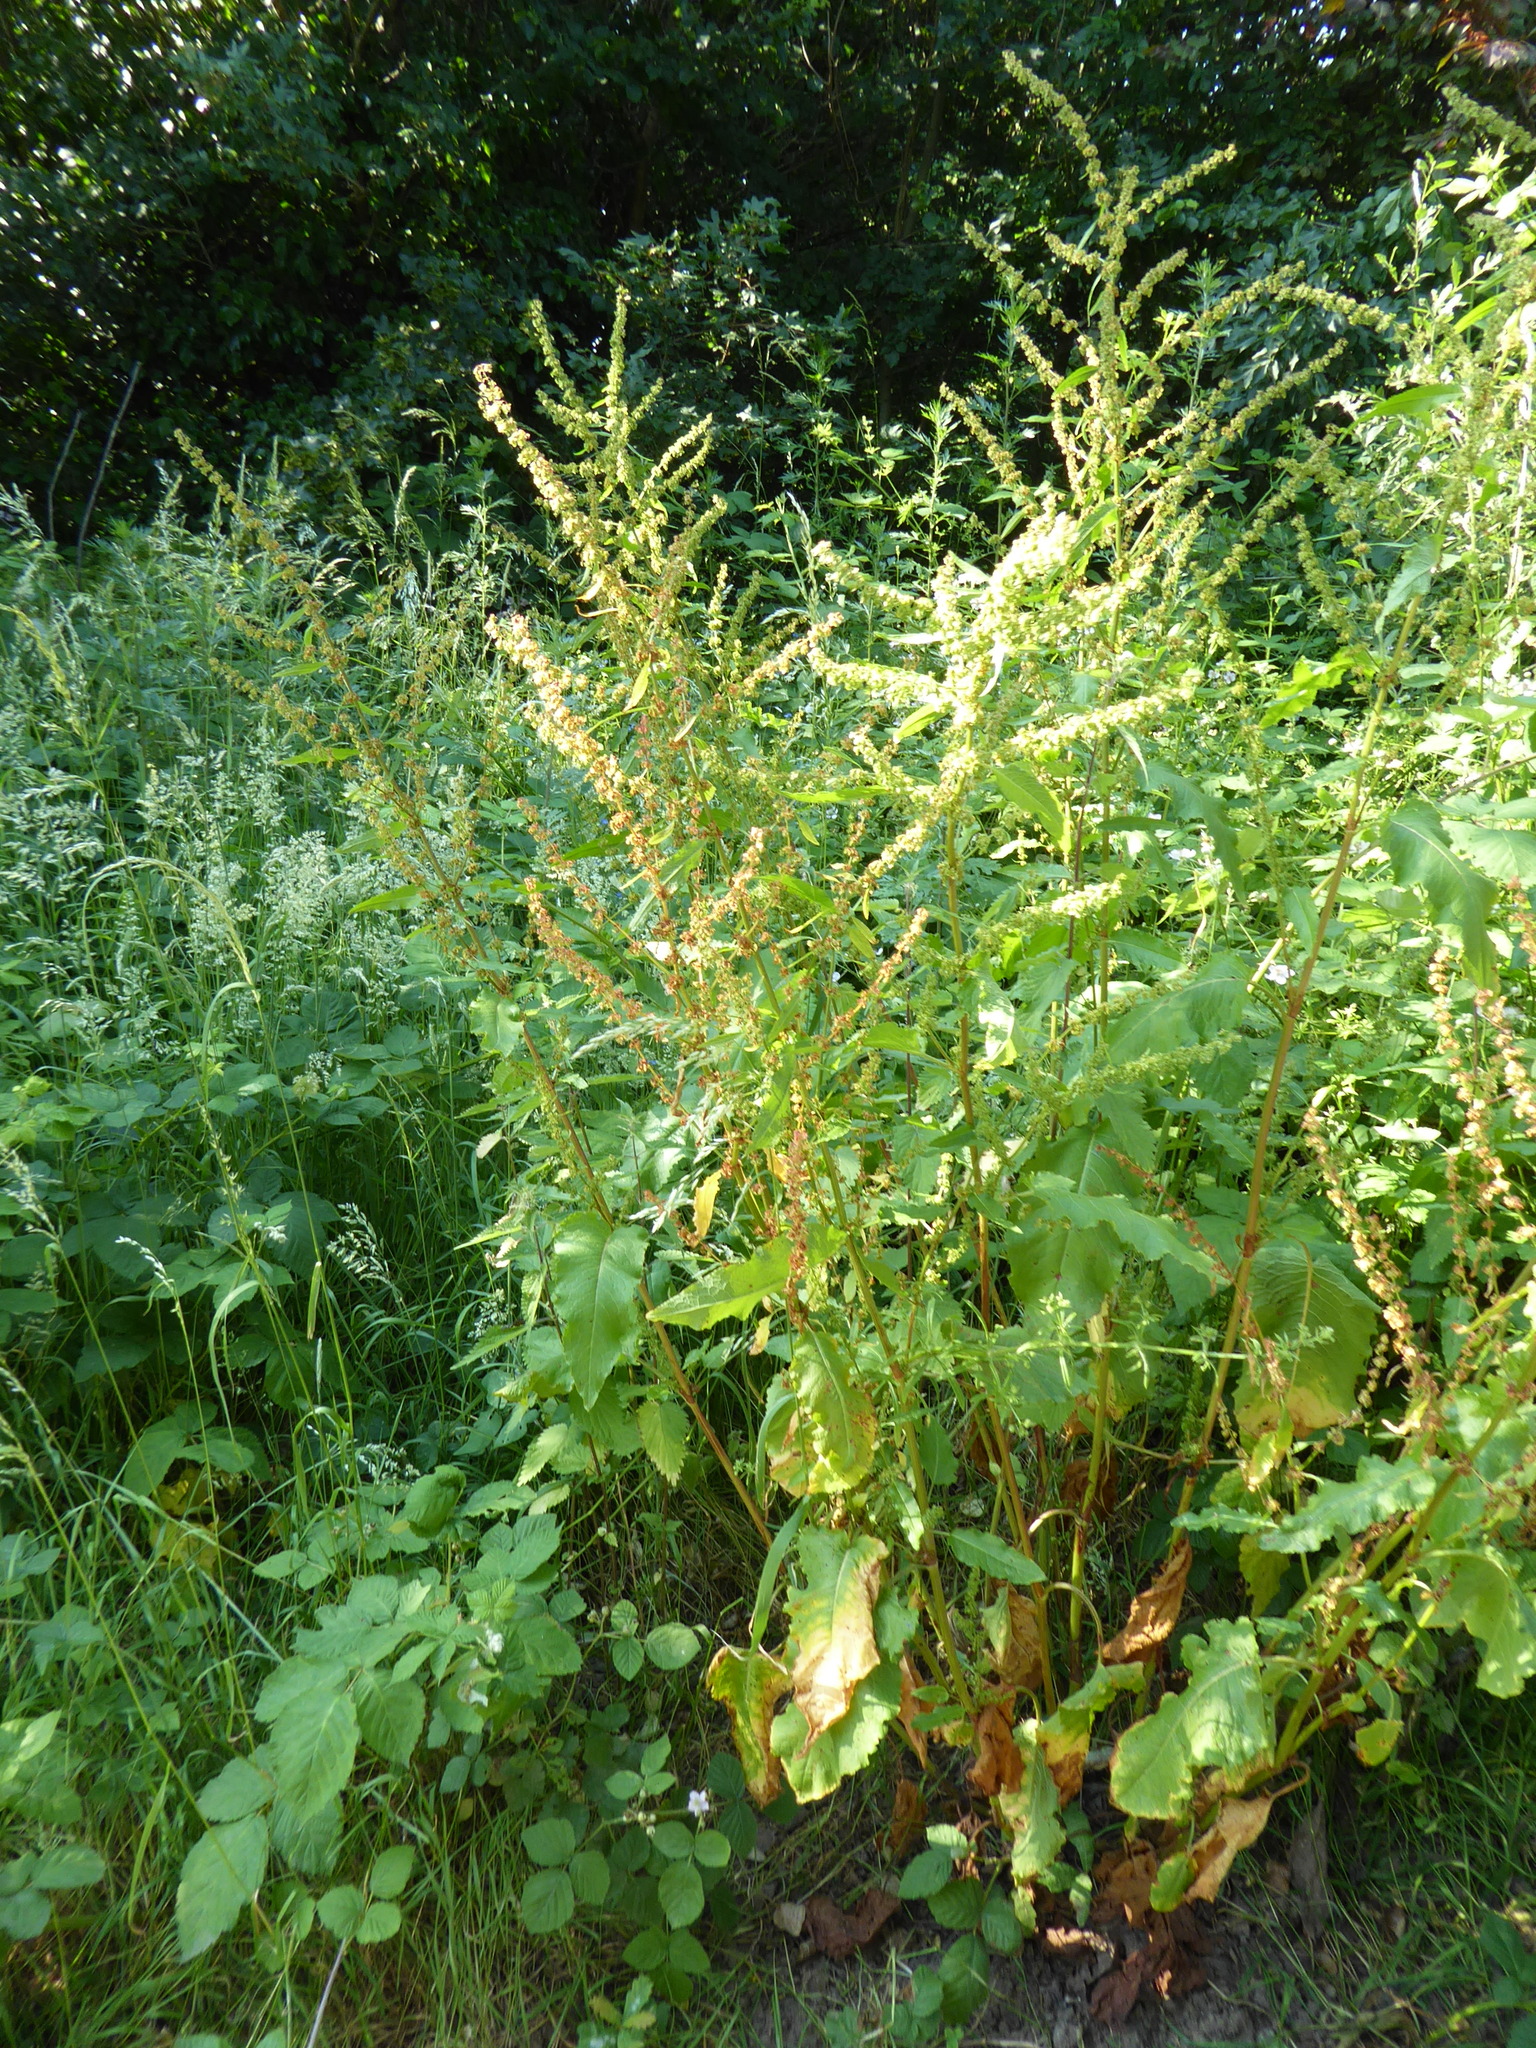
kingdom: Plantae
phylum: Tracheophyta
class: Magnoliopsida
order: Caryophyllales
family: Polygonaceae
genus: Rumex
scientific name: Rumex obtusifolius
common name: Bitter dock
